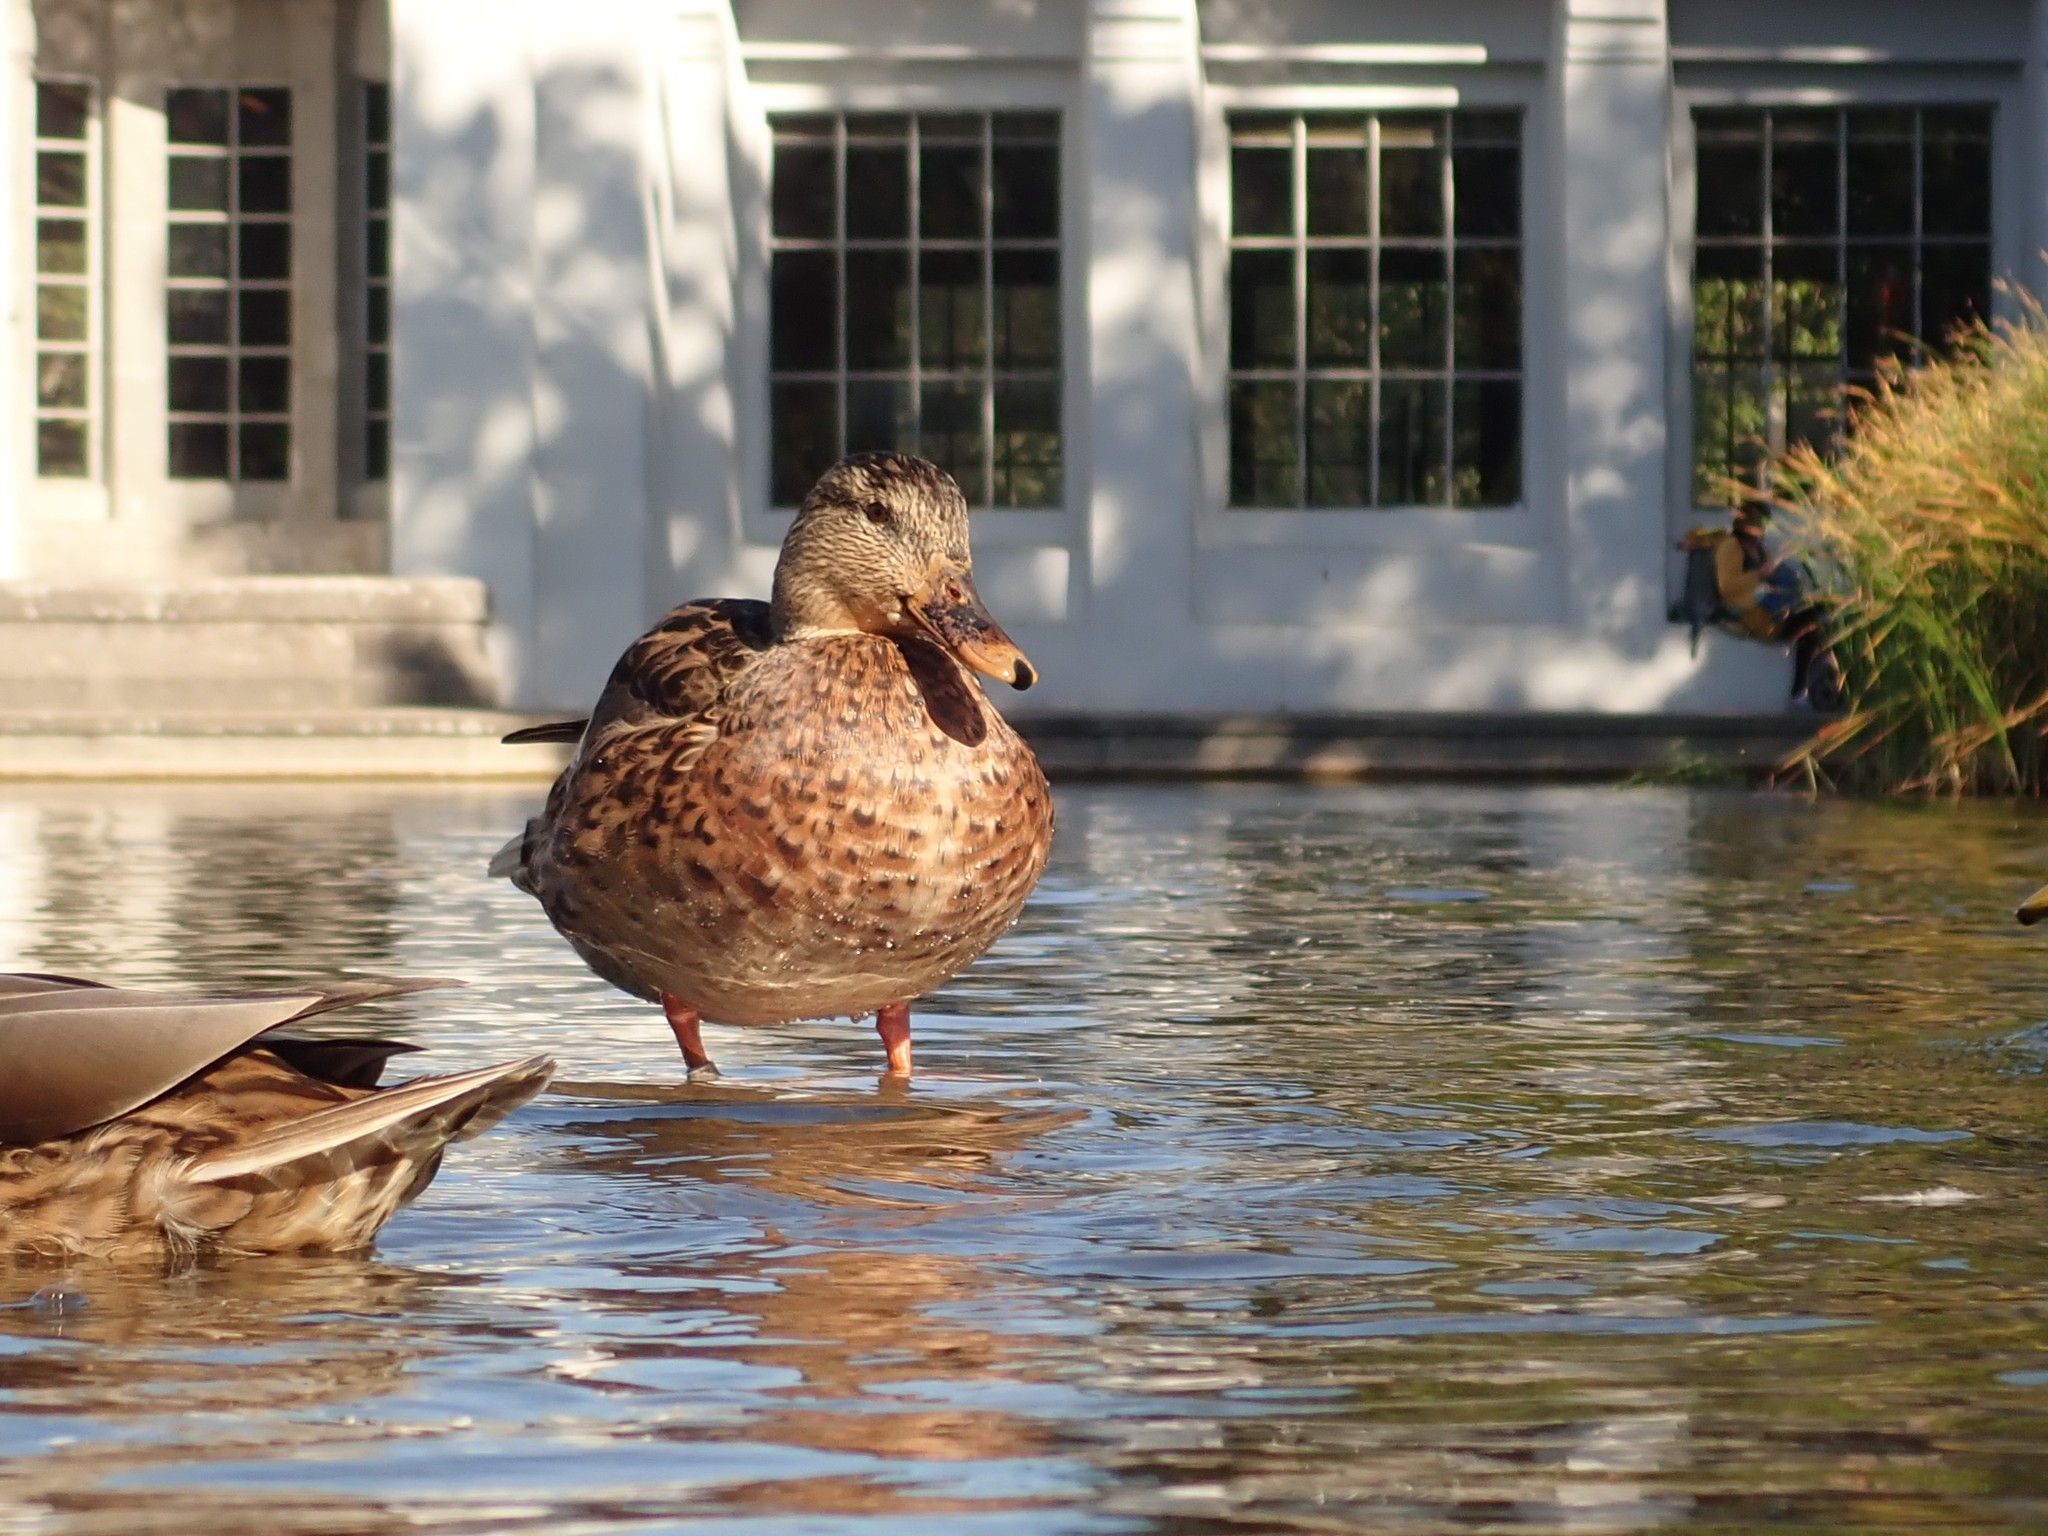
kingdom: Animalia
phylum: Chordata
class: Aves
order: Anseriformes
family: Anatidae
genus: Anas
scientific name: Anas platyrhynchos
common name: Mallard
